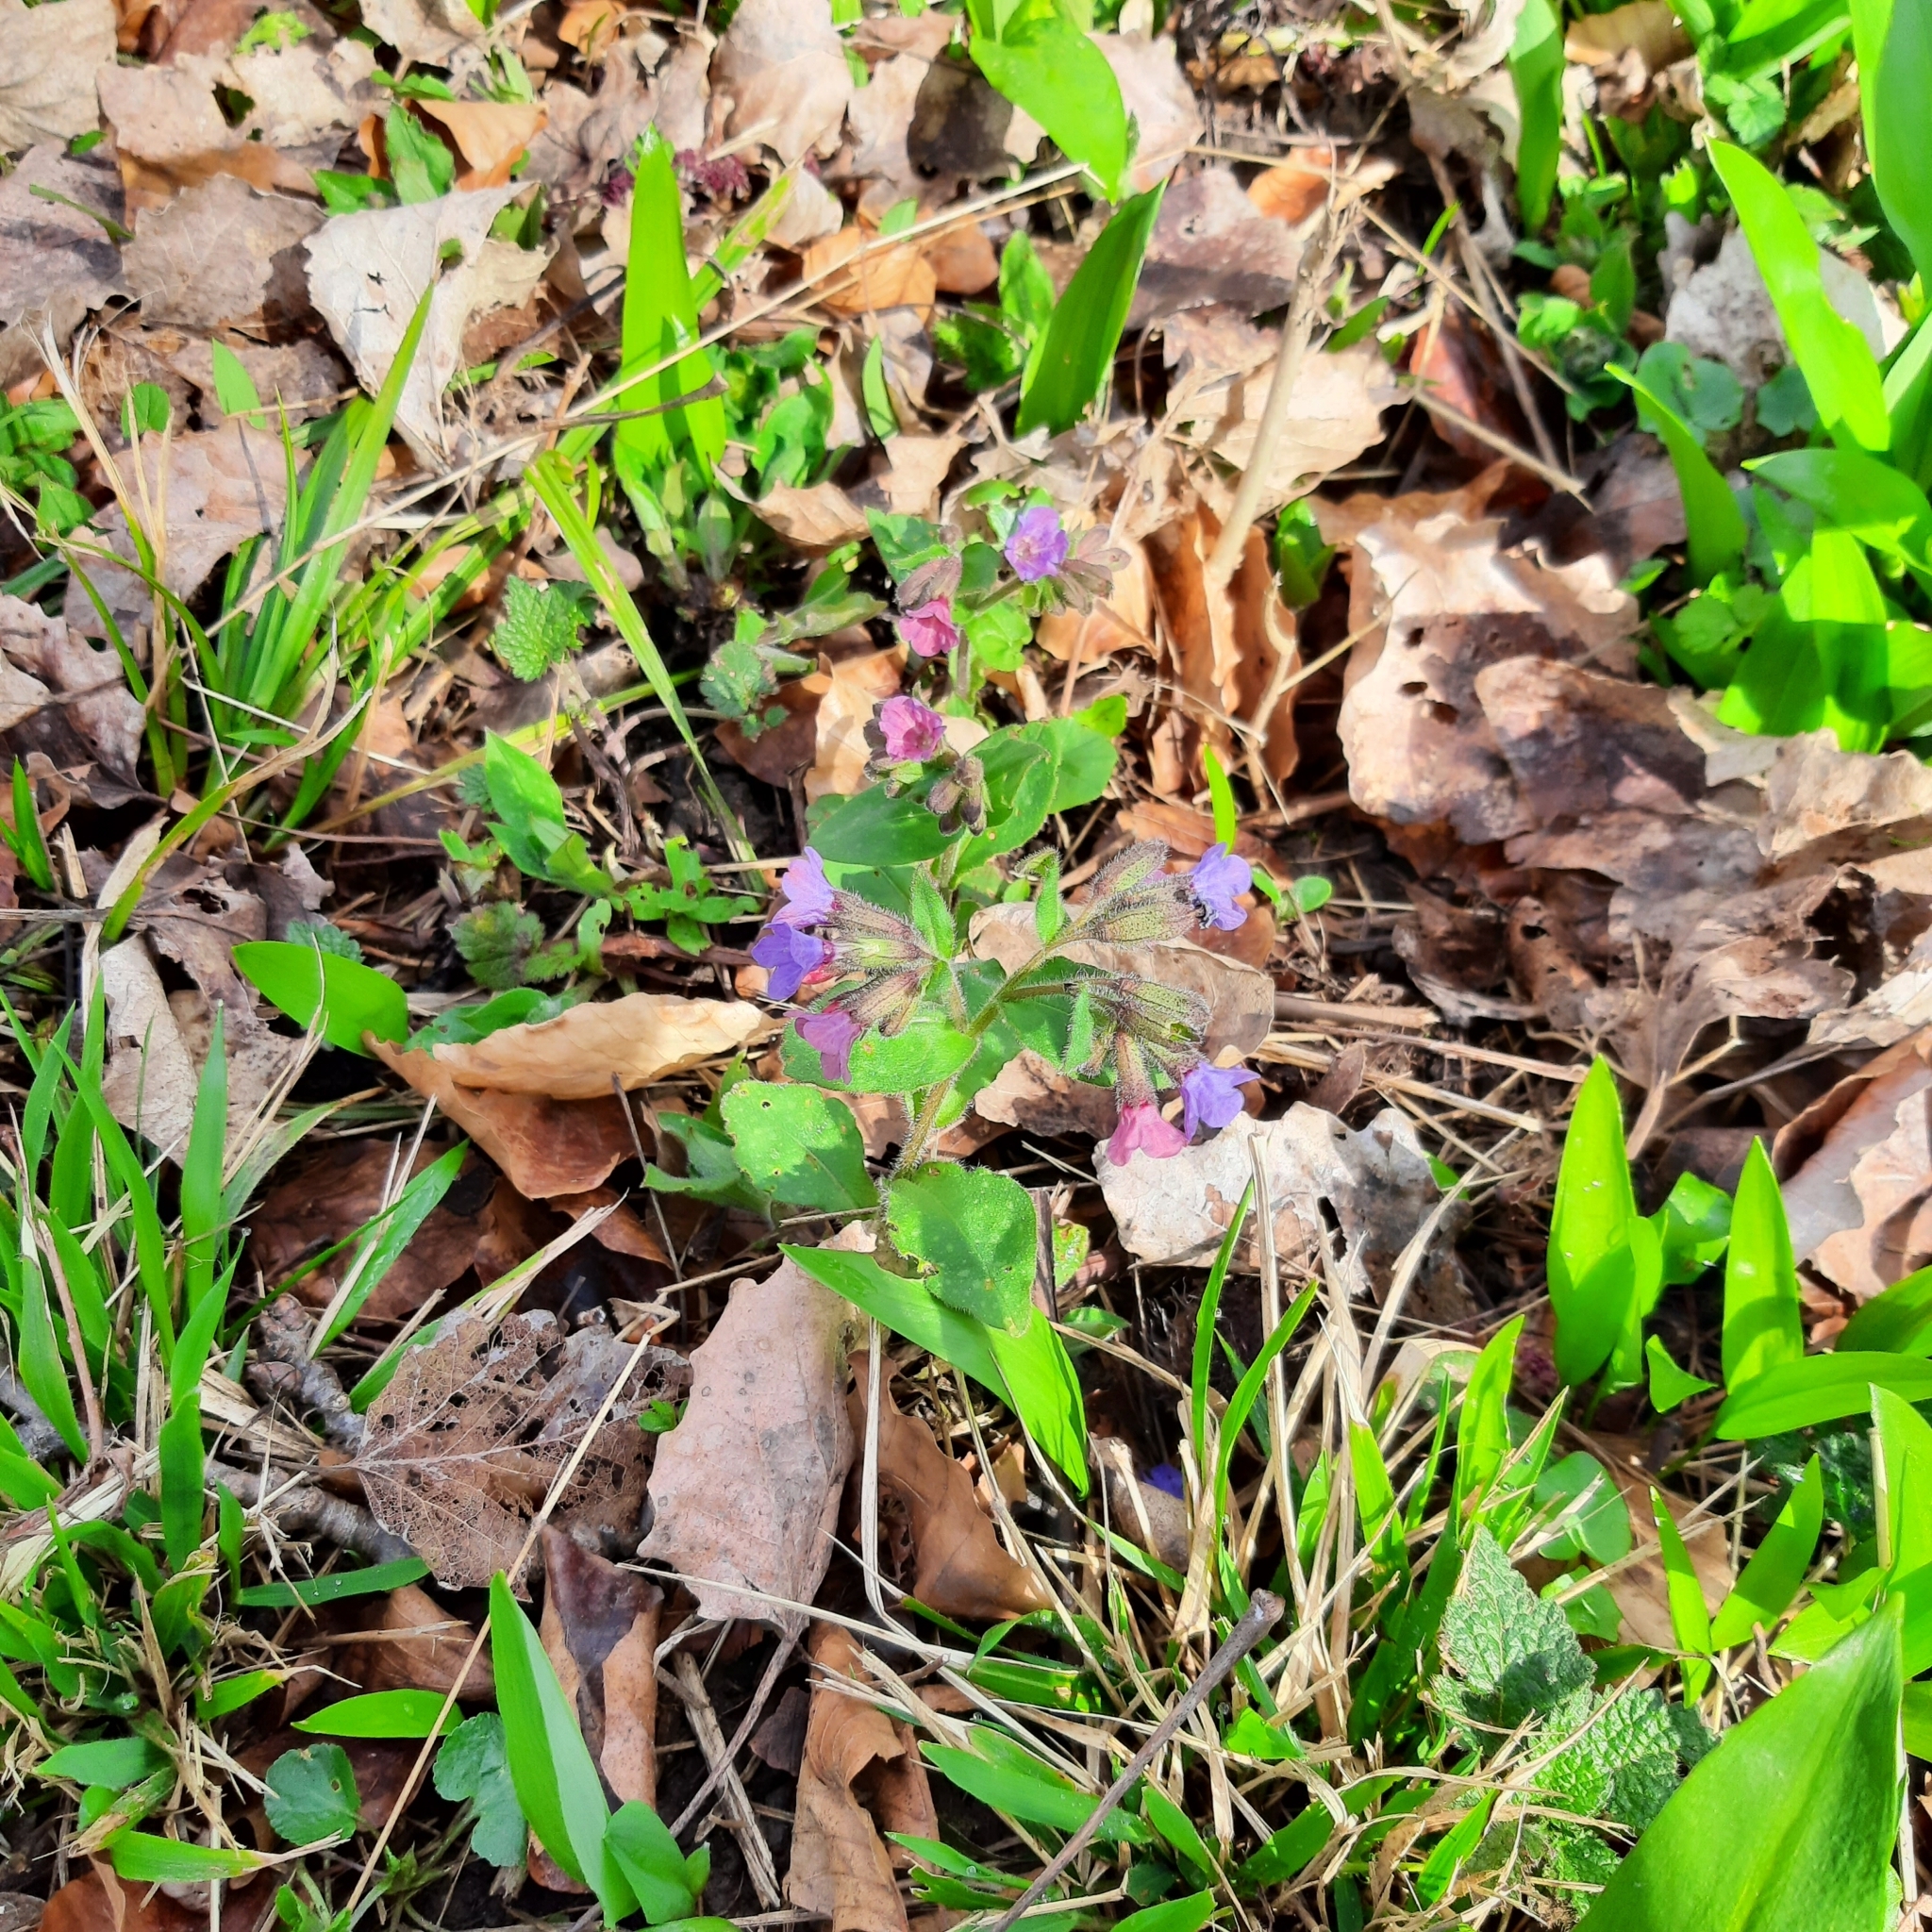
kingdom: Plantae
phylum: Tracheophyta
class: Magnoliopsida
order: Boraginales
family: Boraginaceae
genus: Pulmonaria
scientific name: Pulmonaria
